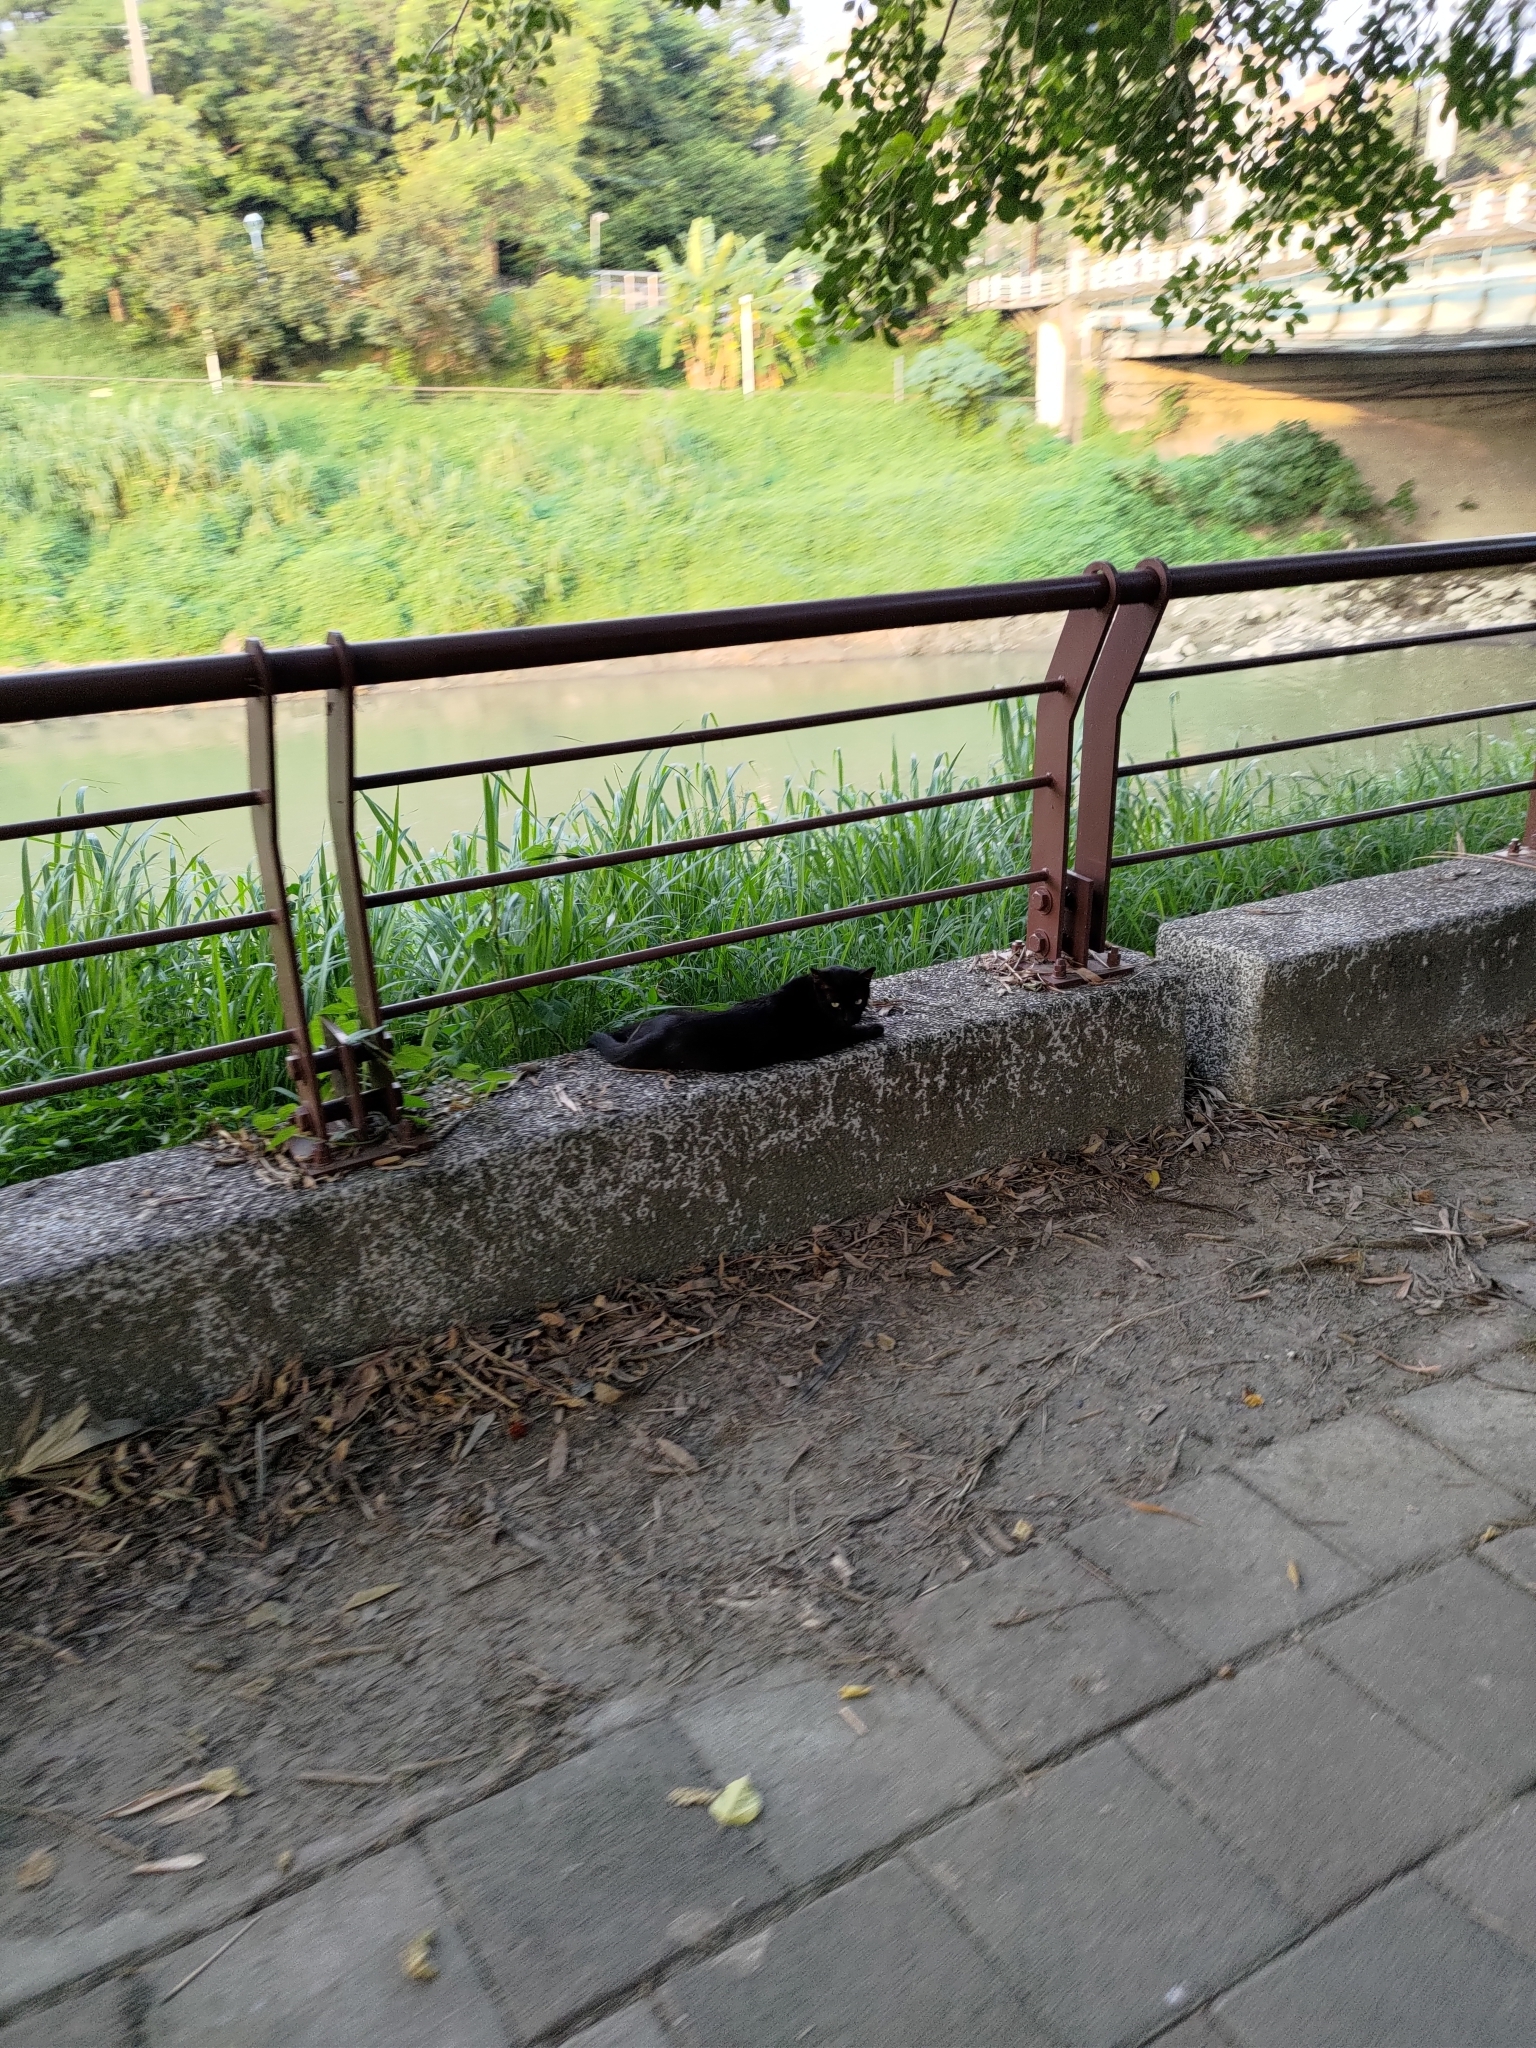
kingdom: Animalia
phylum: Chordata
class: Mammalia
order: Carnivora
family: Felidae
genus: Felis
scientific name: Felis catus
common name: Domestic cat
